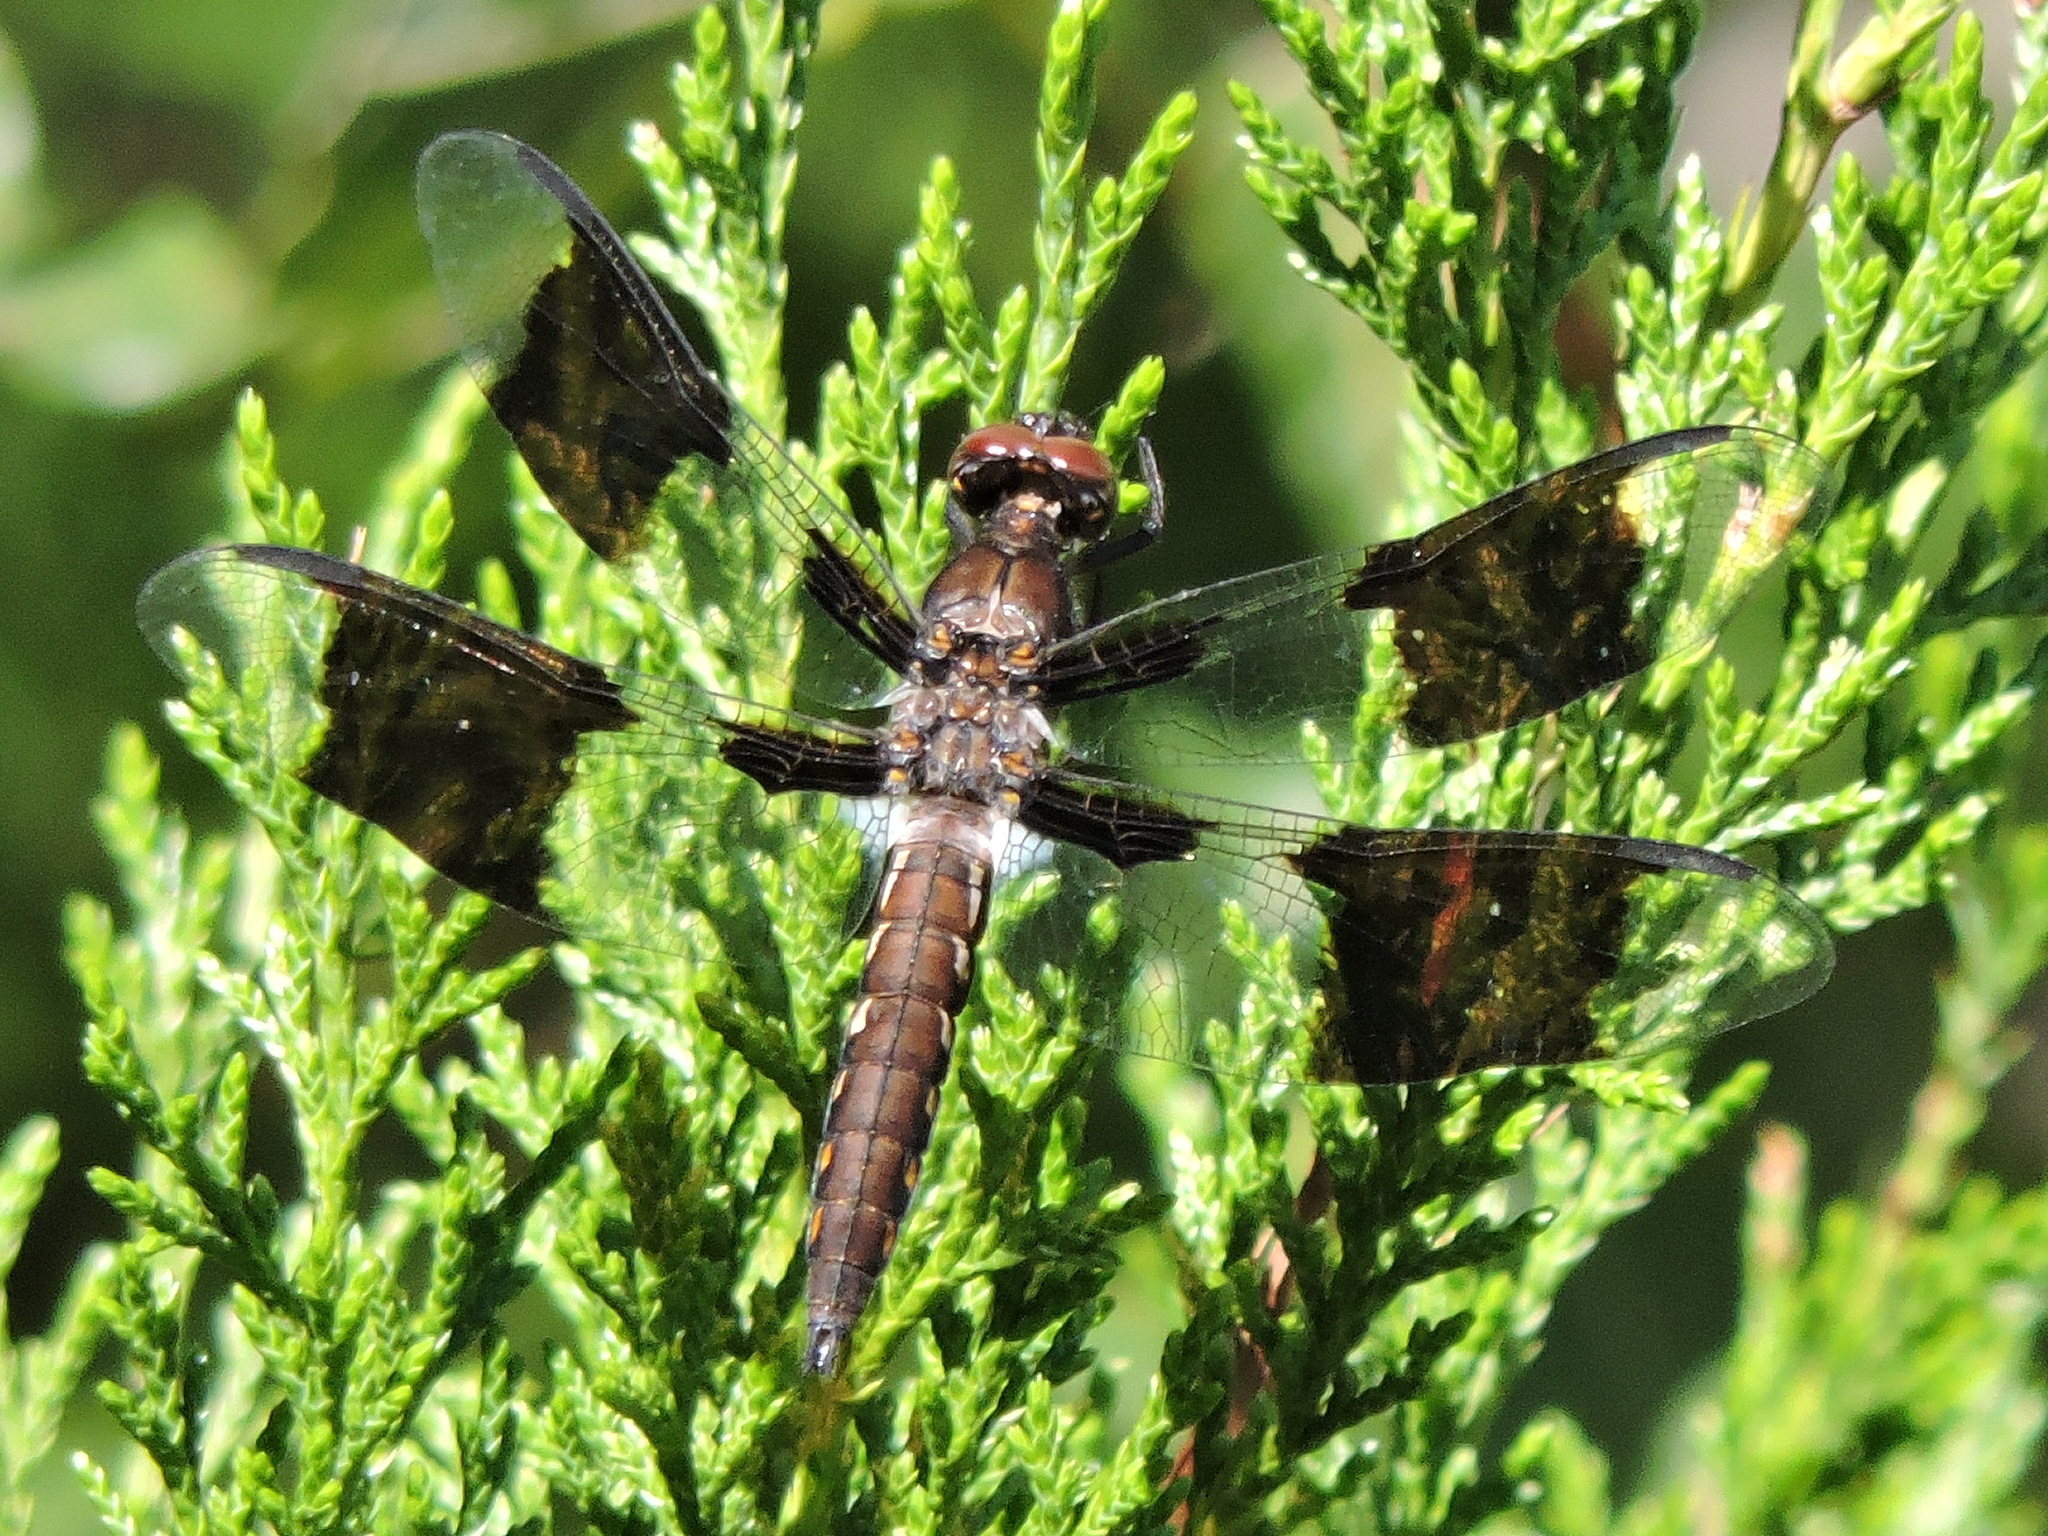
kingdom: Animalia
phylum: Arthropoda
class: Insecta
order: Odonata
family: Libellulidae
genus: Plathemis
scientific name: Plathemis lydia
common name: Common whitetail
